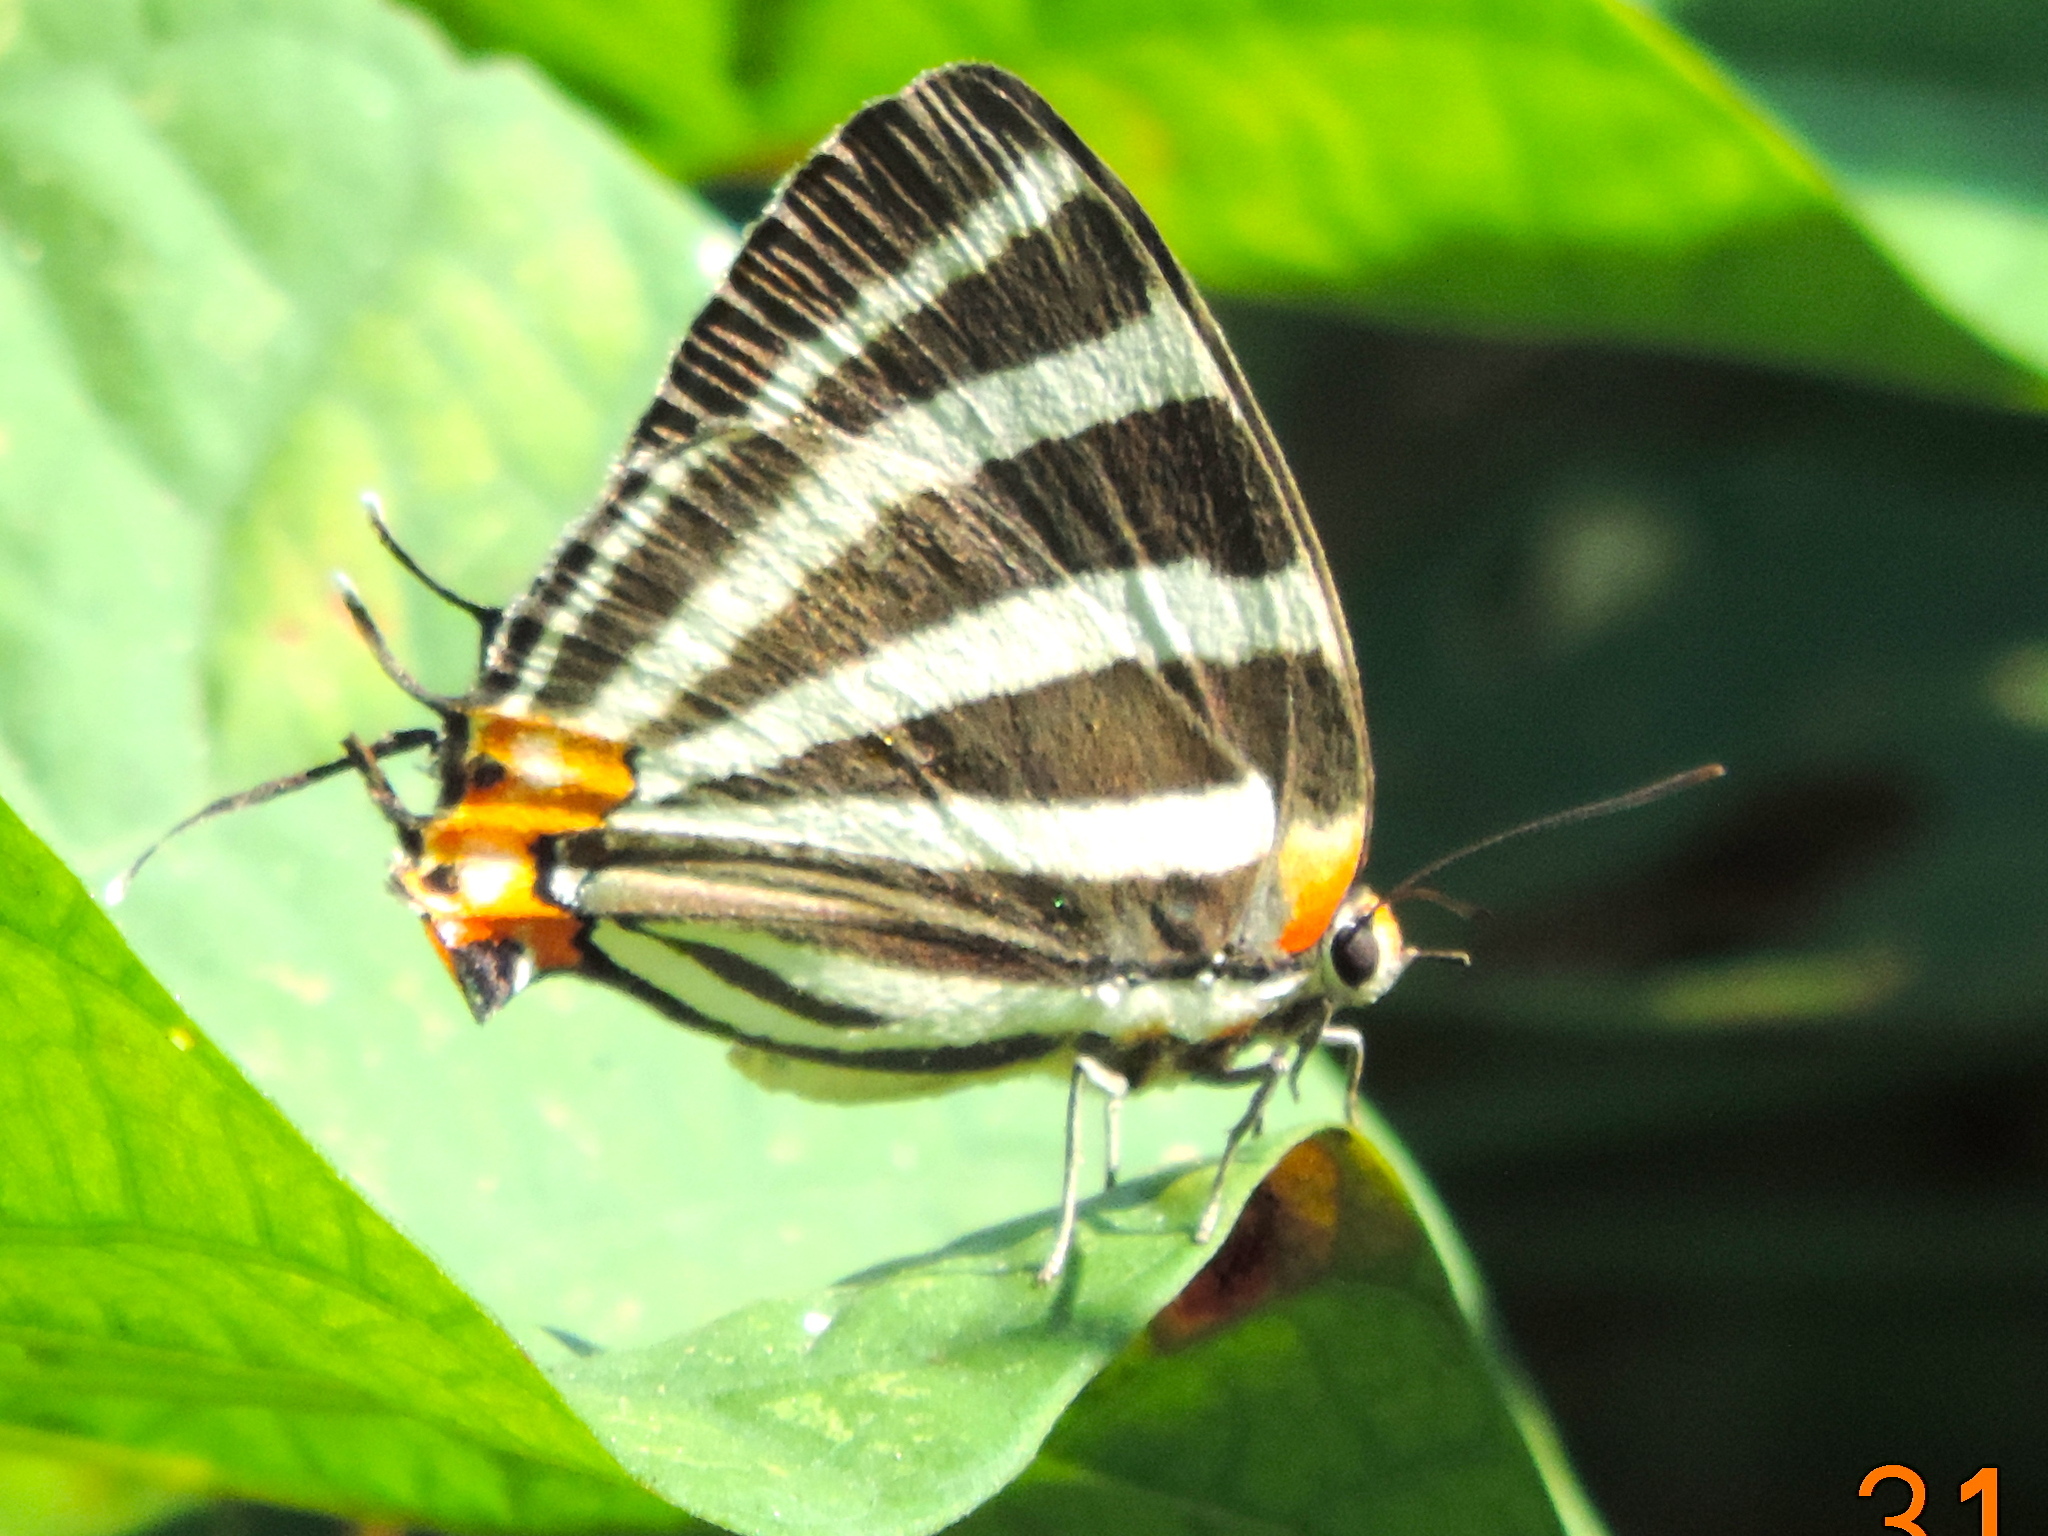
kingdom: Animalia
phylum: Arthropoda
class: Insecta
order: Lepidoptera
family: Lycaenidae
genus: Thecla
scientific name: Thecla bathildis
